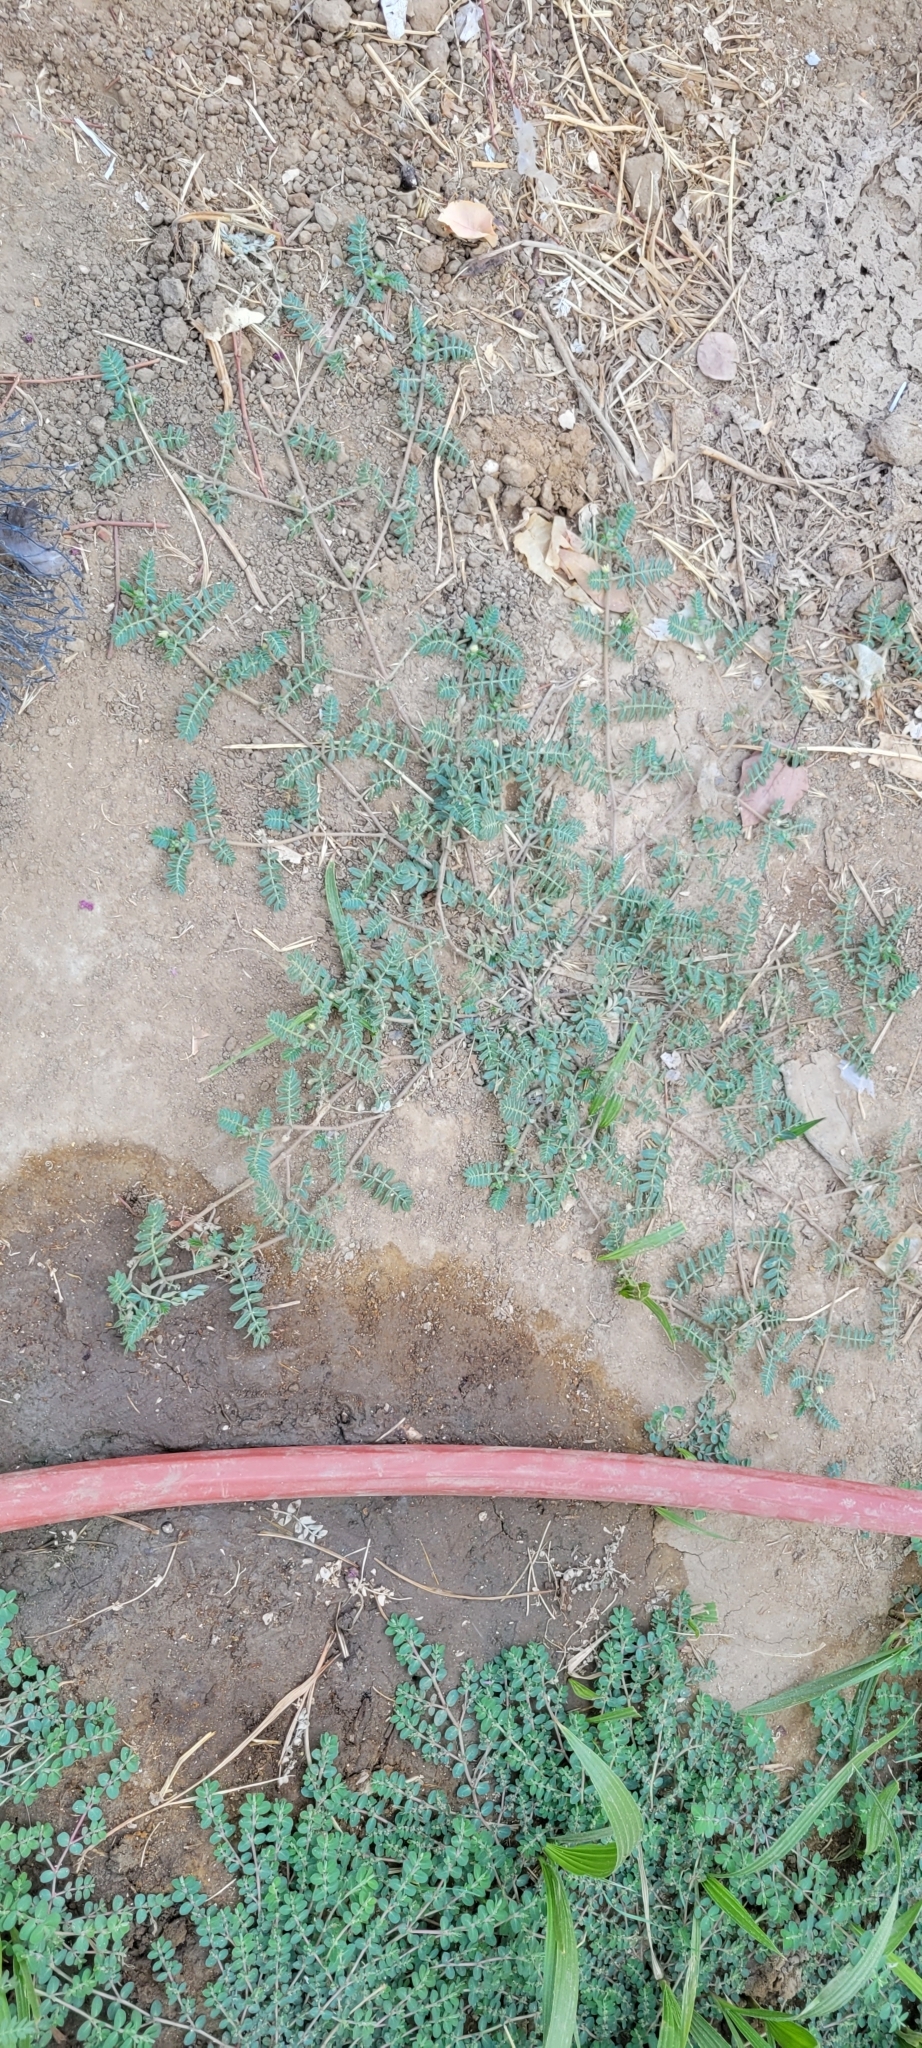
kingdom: Plantae
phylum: Tracheophyta
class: Magnoliopsida
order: Zygophyllales
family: Zygophyllaceae
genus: Tribulus
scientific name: Tribulus terrestris
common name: Puncturevine
